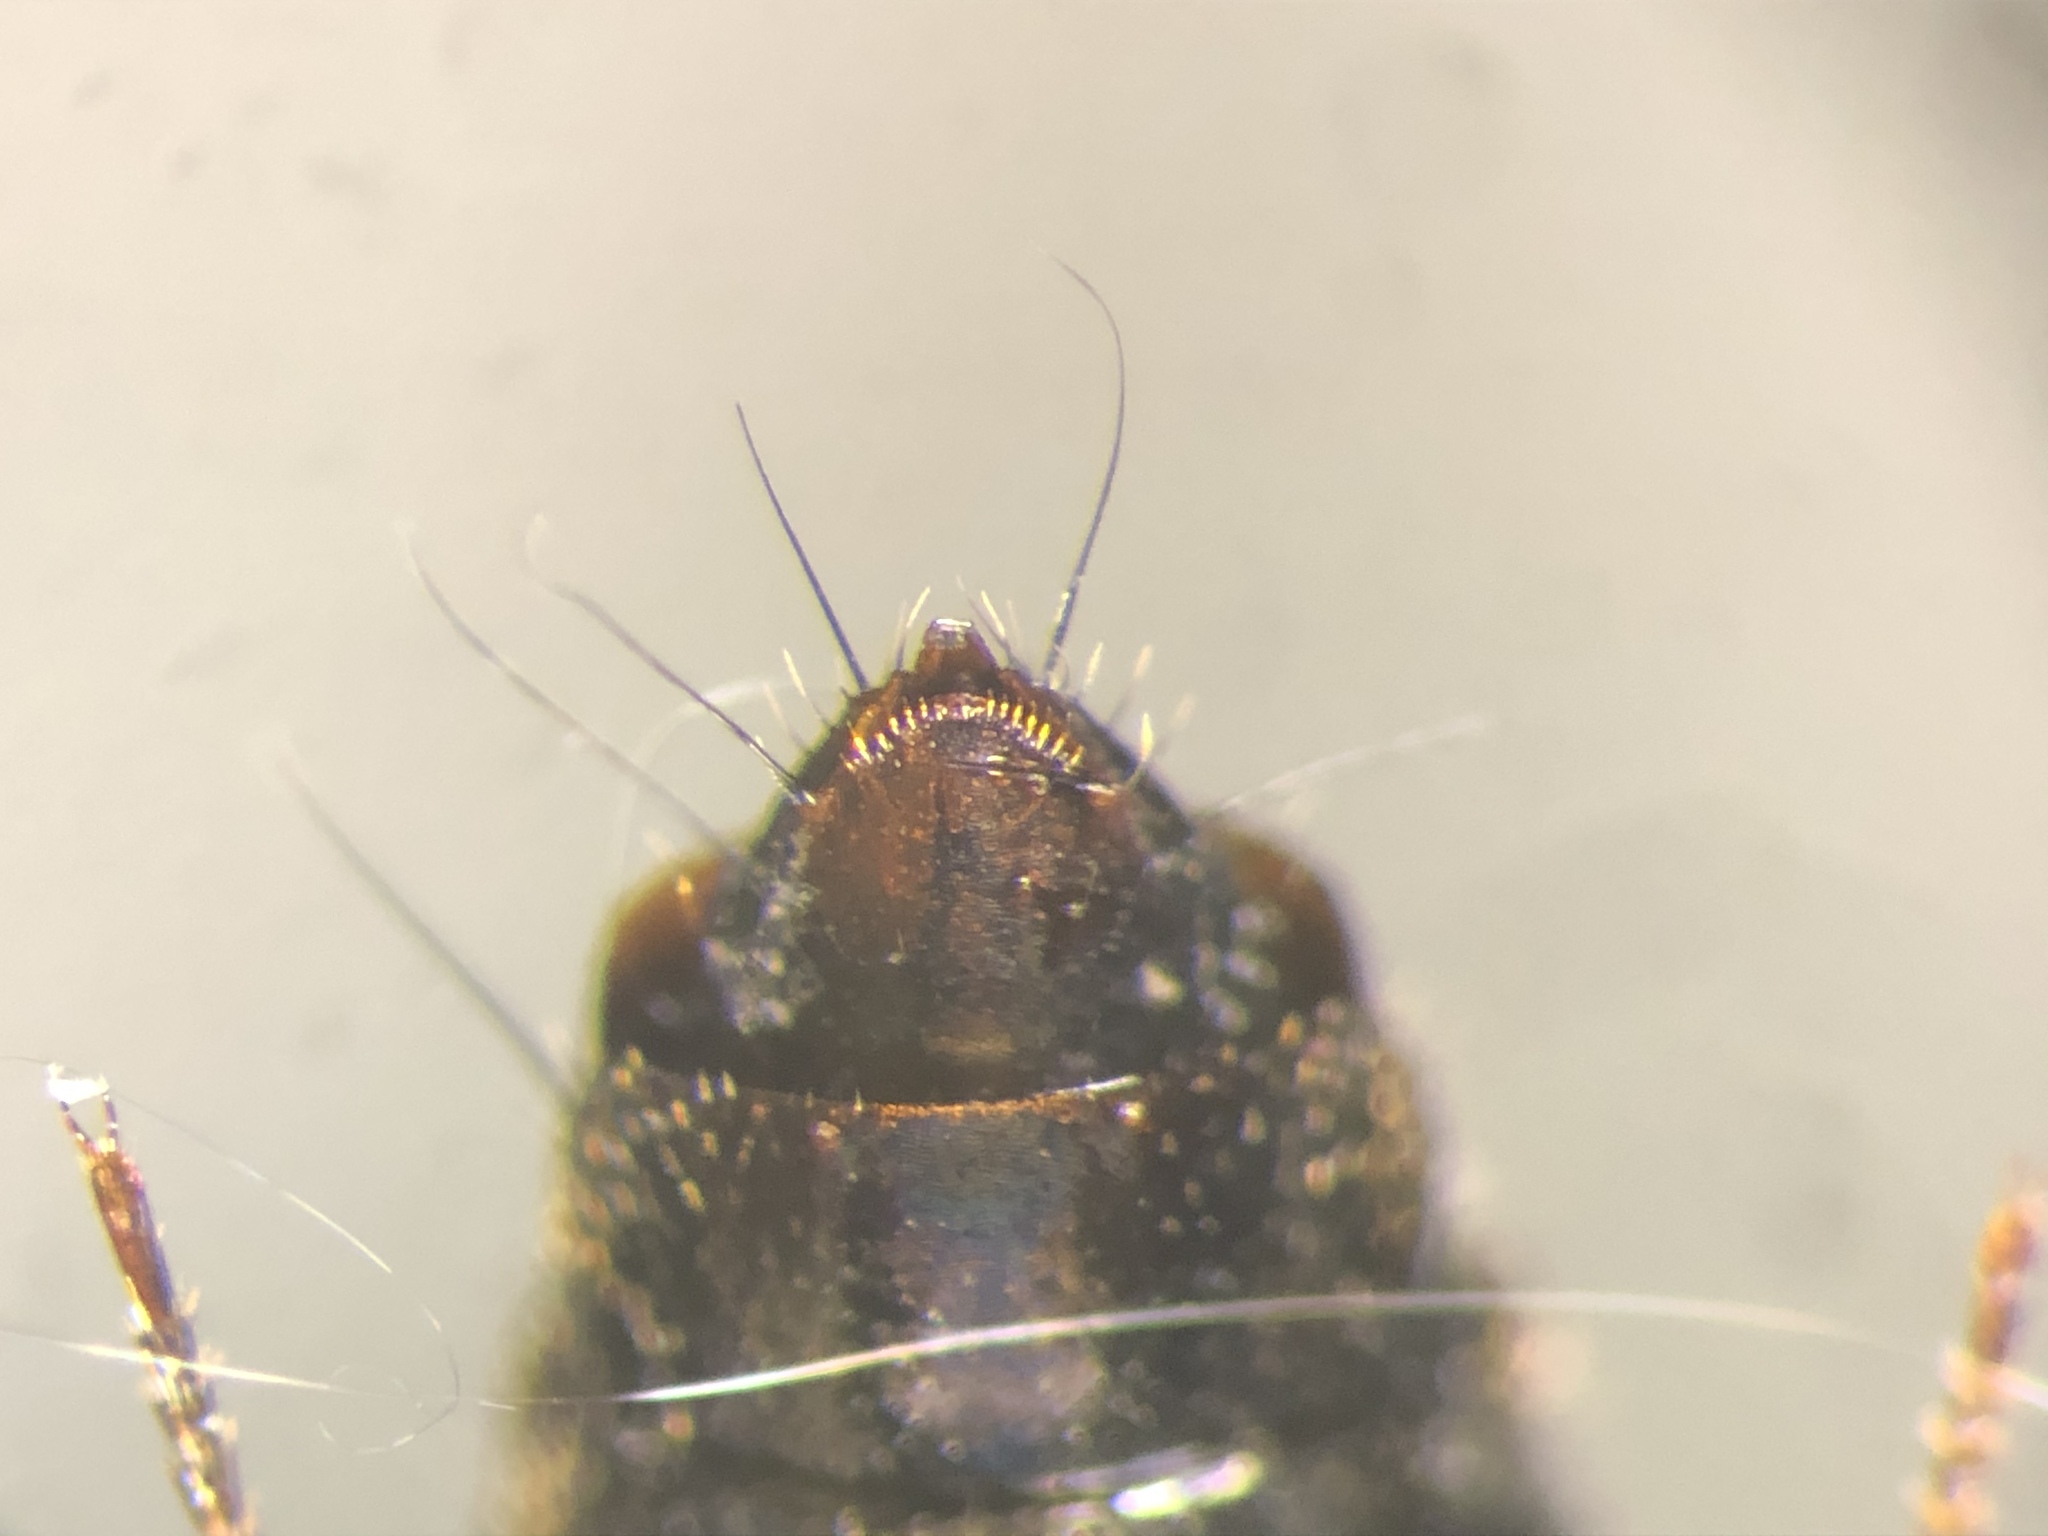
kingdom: Animalia
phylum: Arthropoda
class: Insecta
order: Coleoptera
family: Staphylinidae
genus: Tachinus
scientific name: Tachinus luridus
